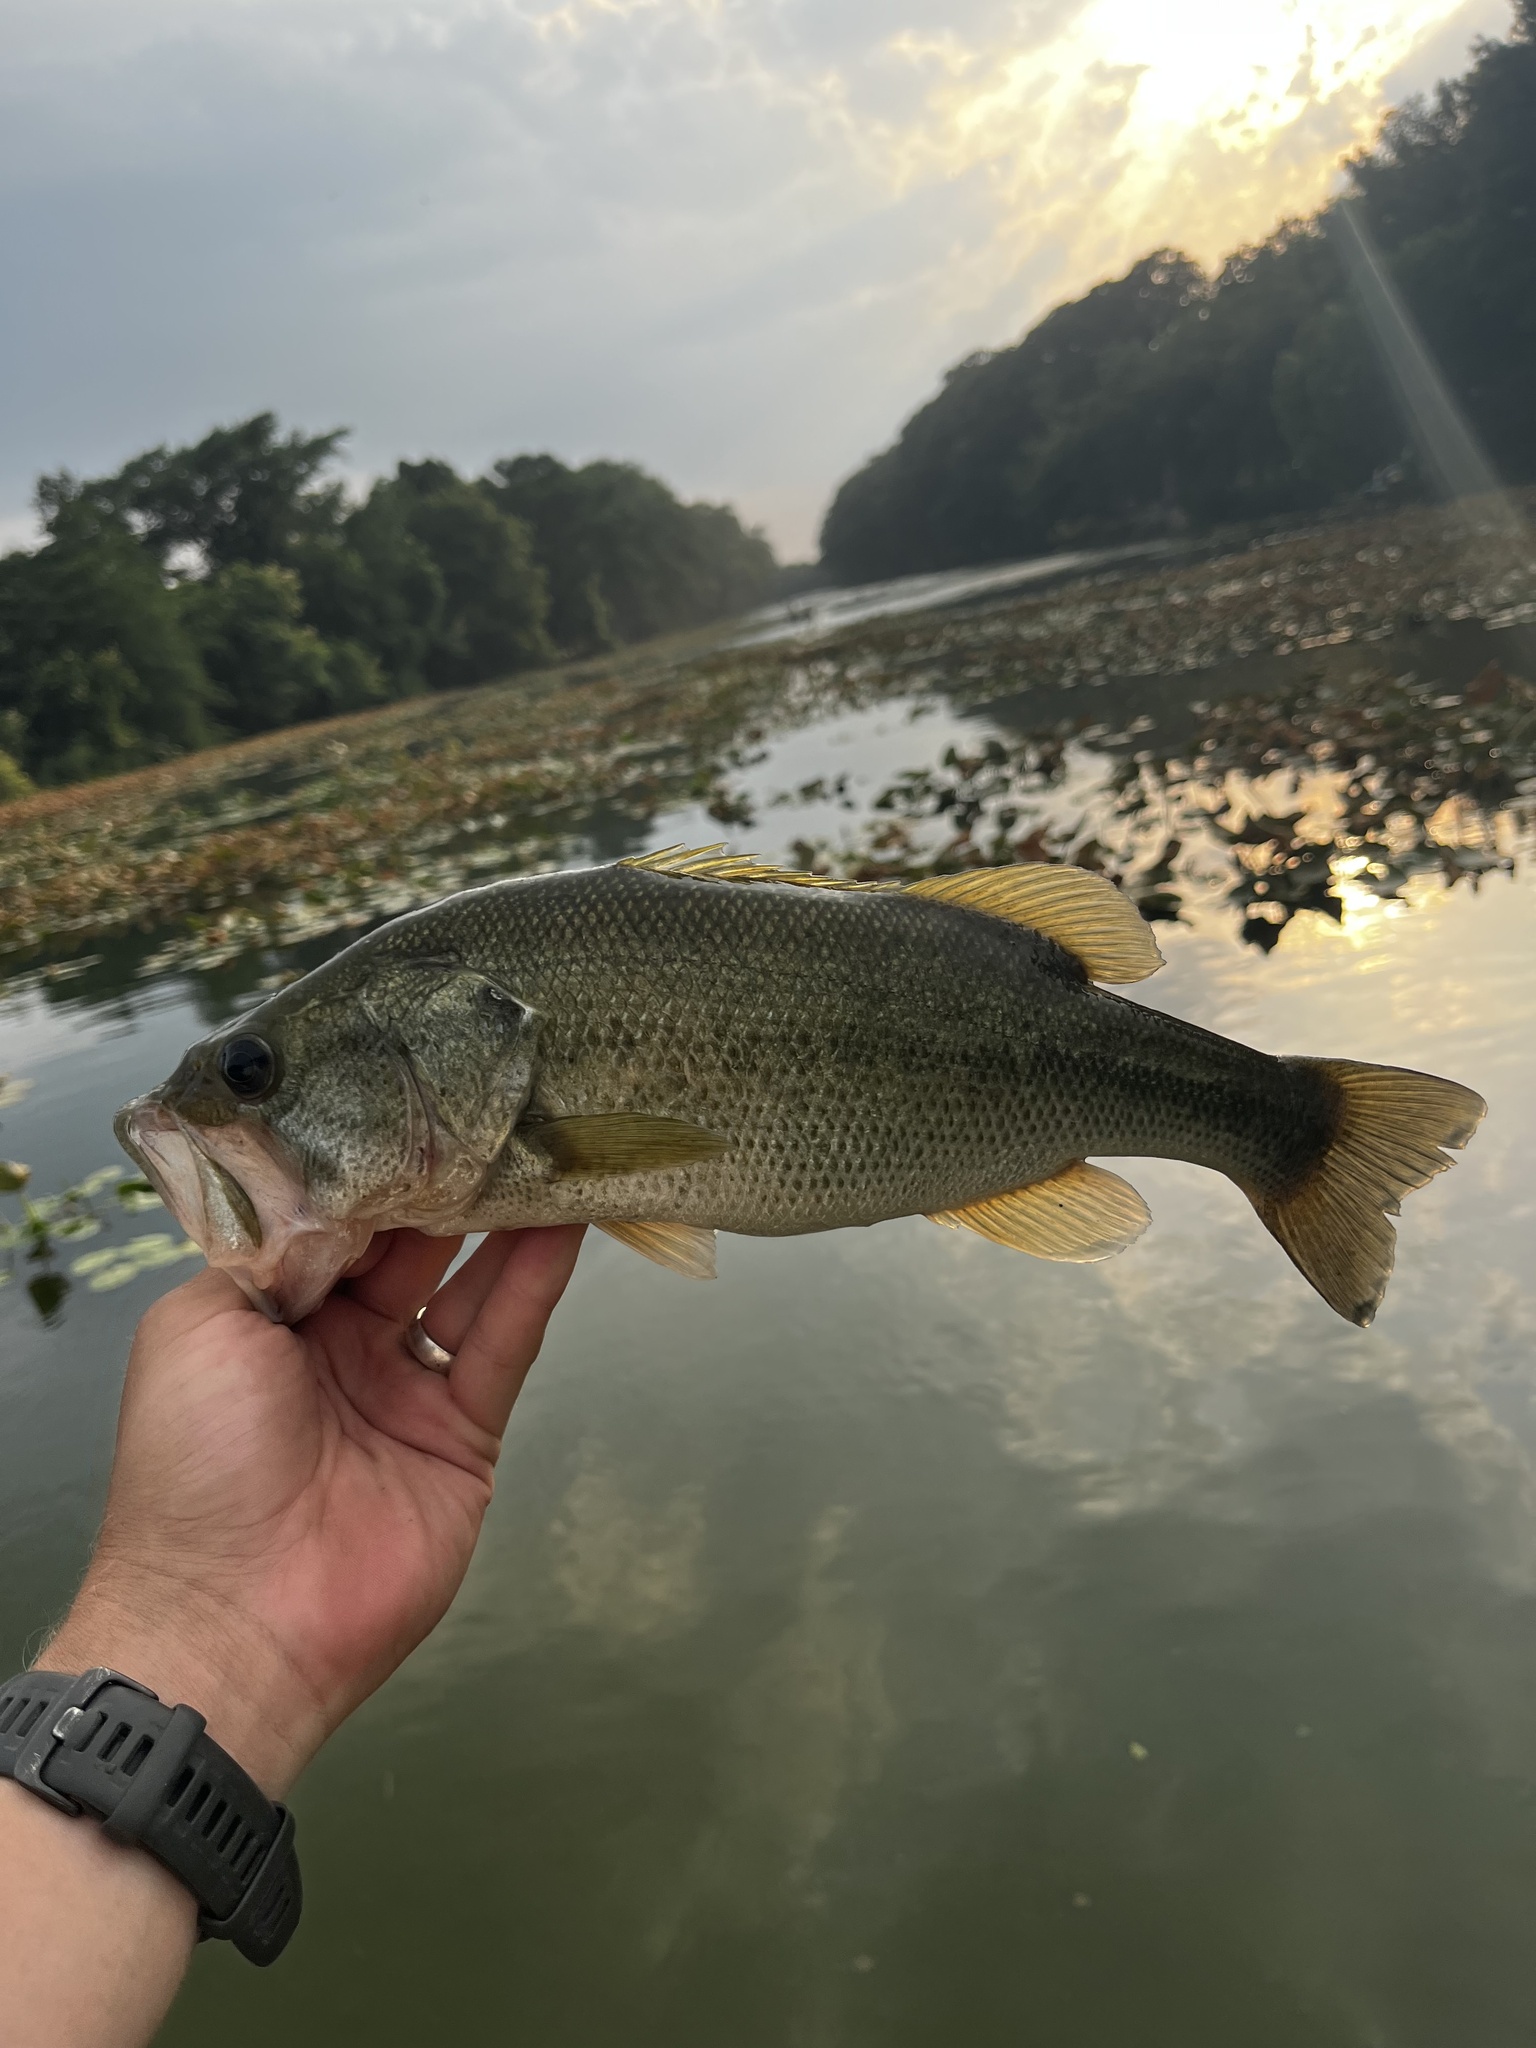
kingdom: Animalia
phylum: Chordata
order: Perciformes
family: Centrarchidae
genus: Micropterus
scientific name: Micropterus
